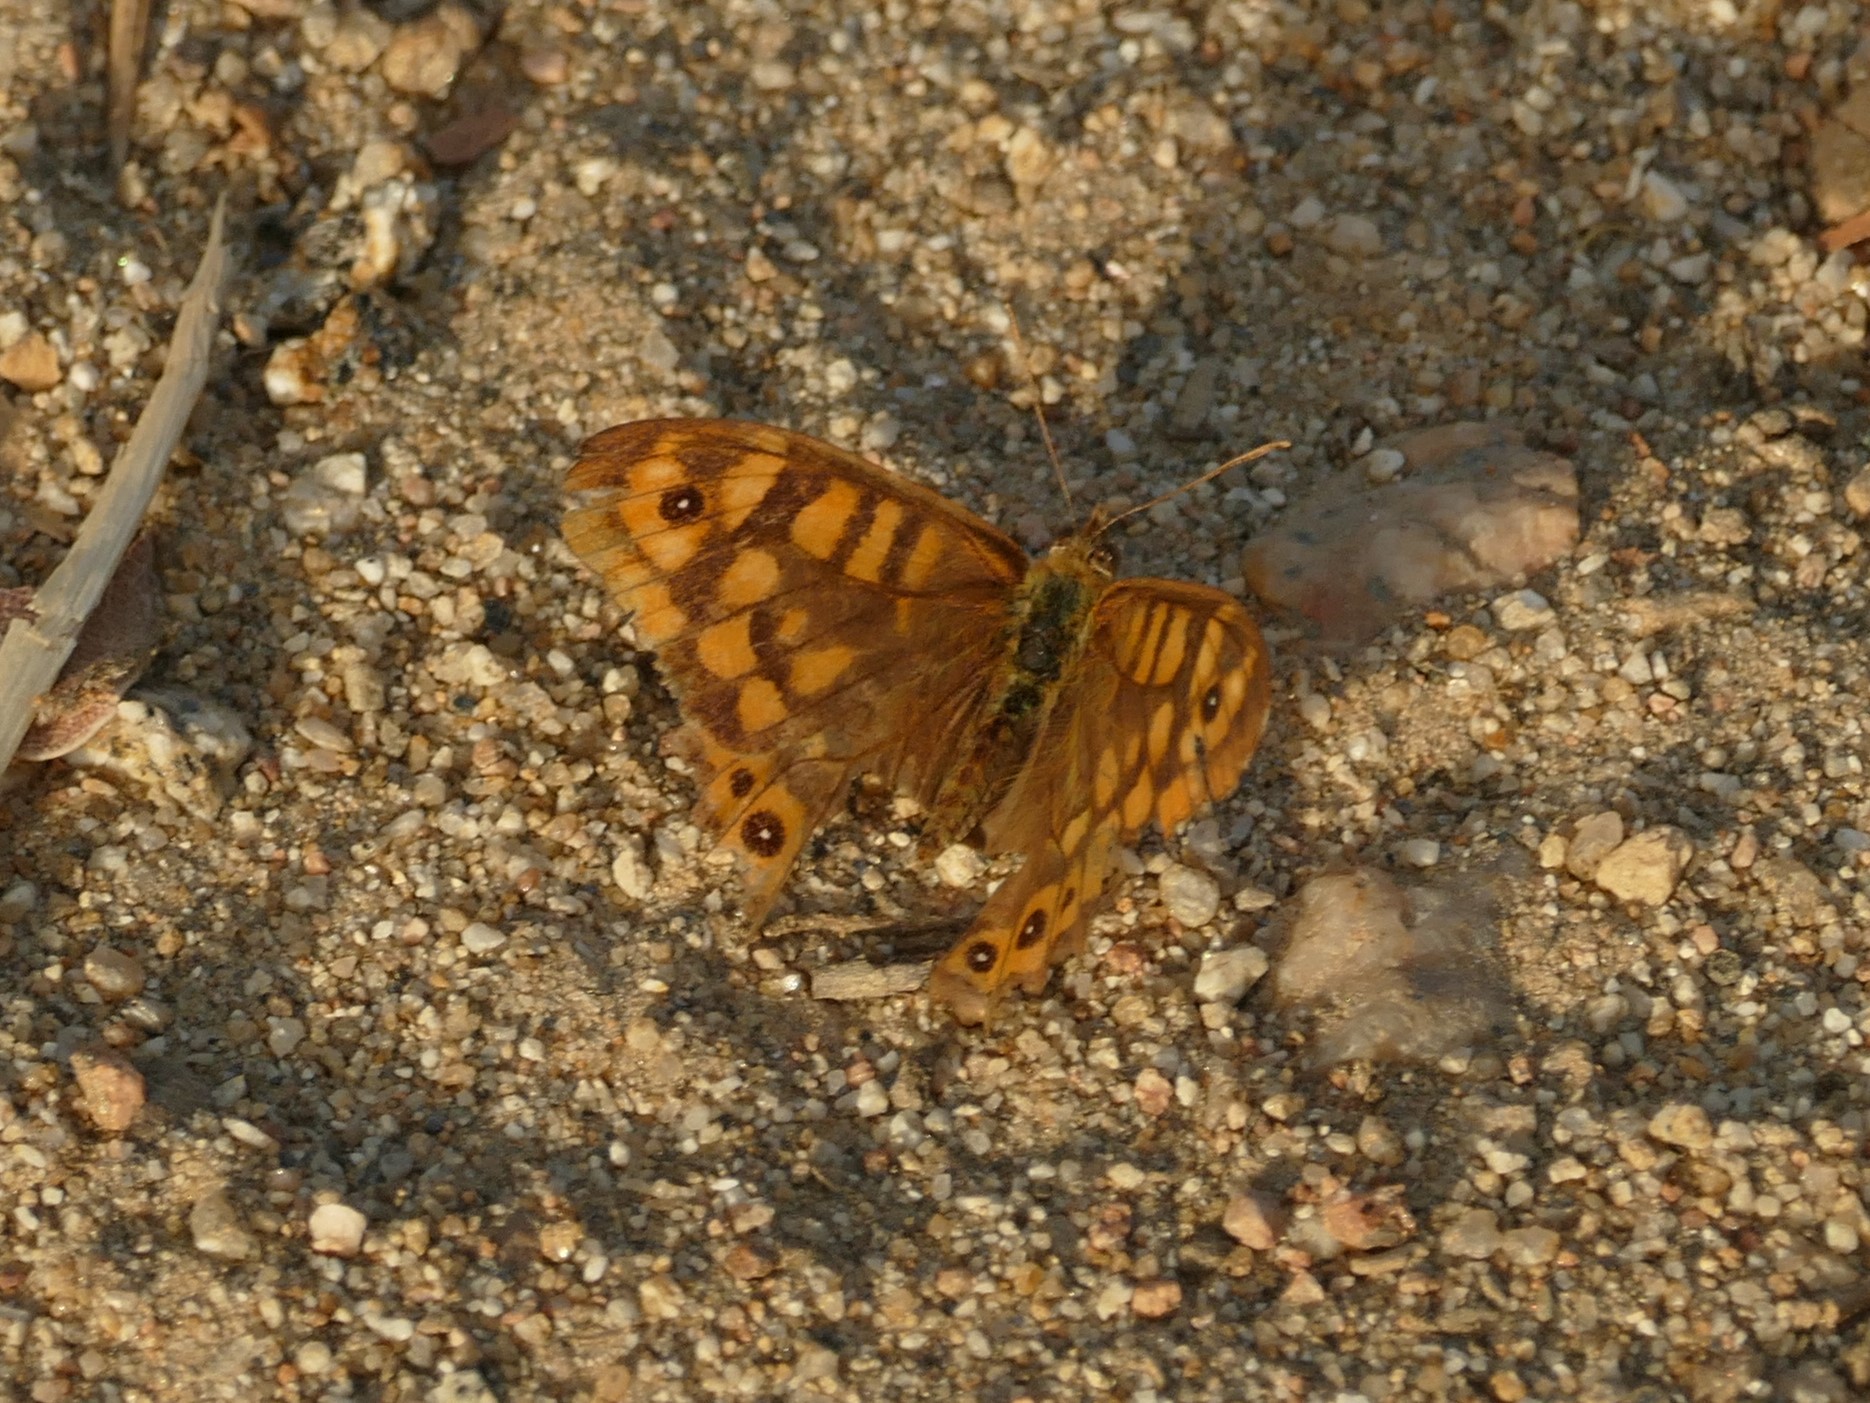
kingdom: Animalia
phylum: Arthropoda
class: Insecta
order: Lepidoptera
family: Nymphalidae
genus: Pararge
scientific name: Pararge aegeria
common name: Speckled wood
